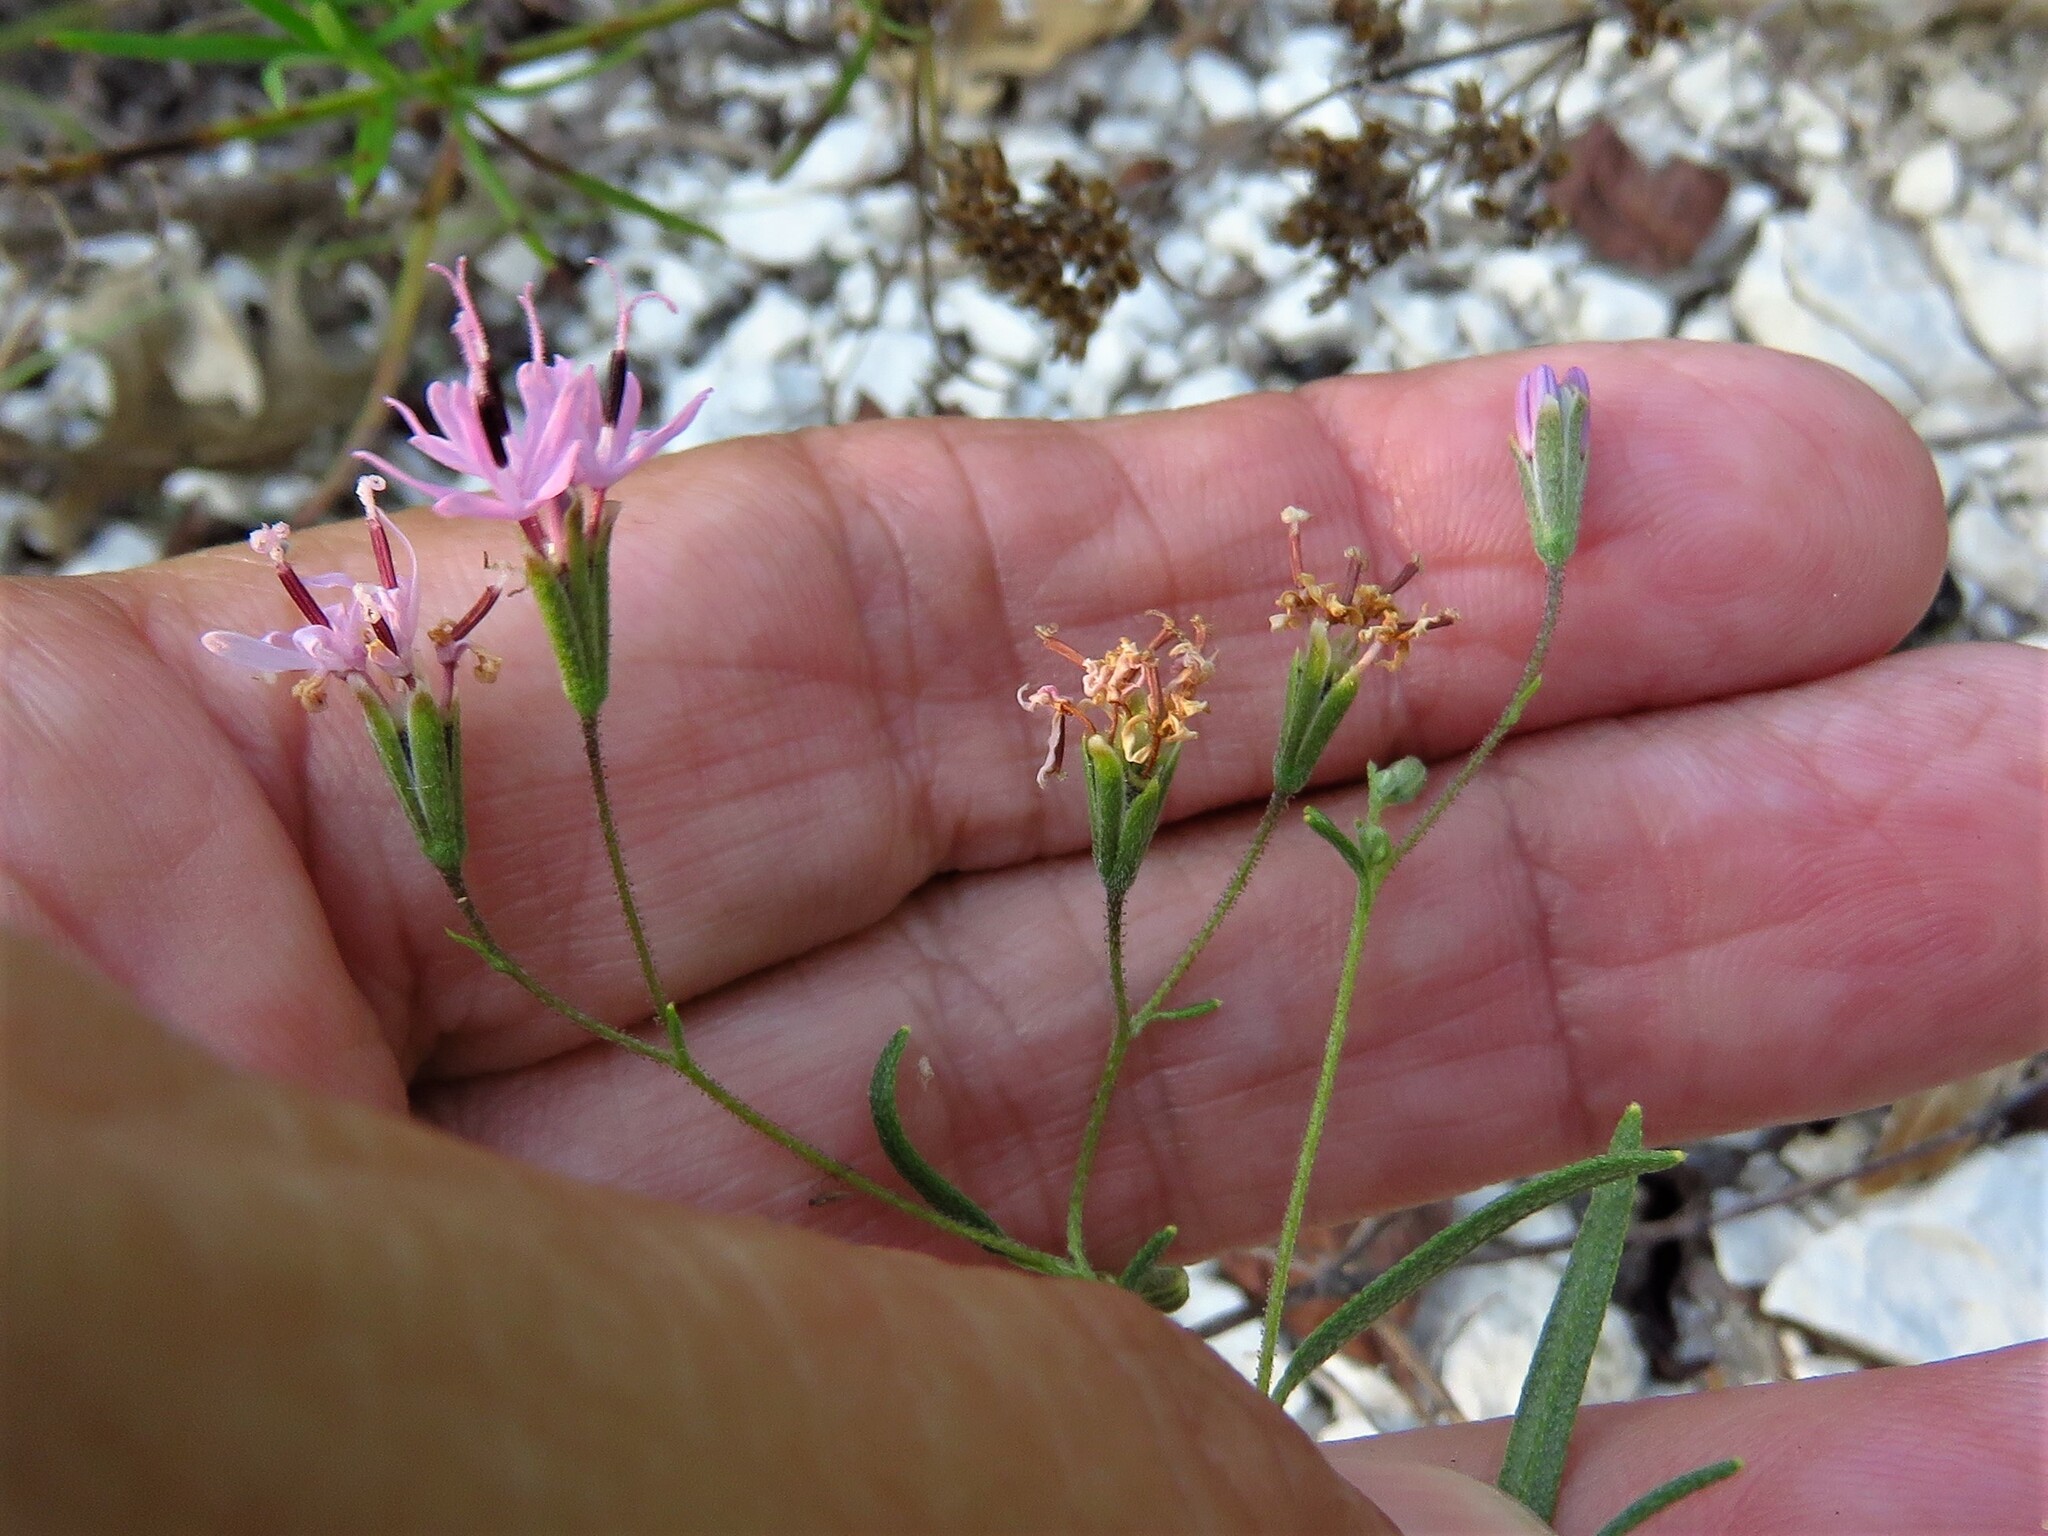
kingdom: Plantae
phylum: Tracheophyta
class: Magnoliopsida
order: Asterales
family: Asteraceae
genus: Palafoxia
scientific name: Palafoxia callosa
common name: Small palafox
